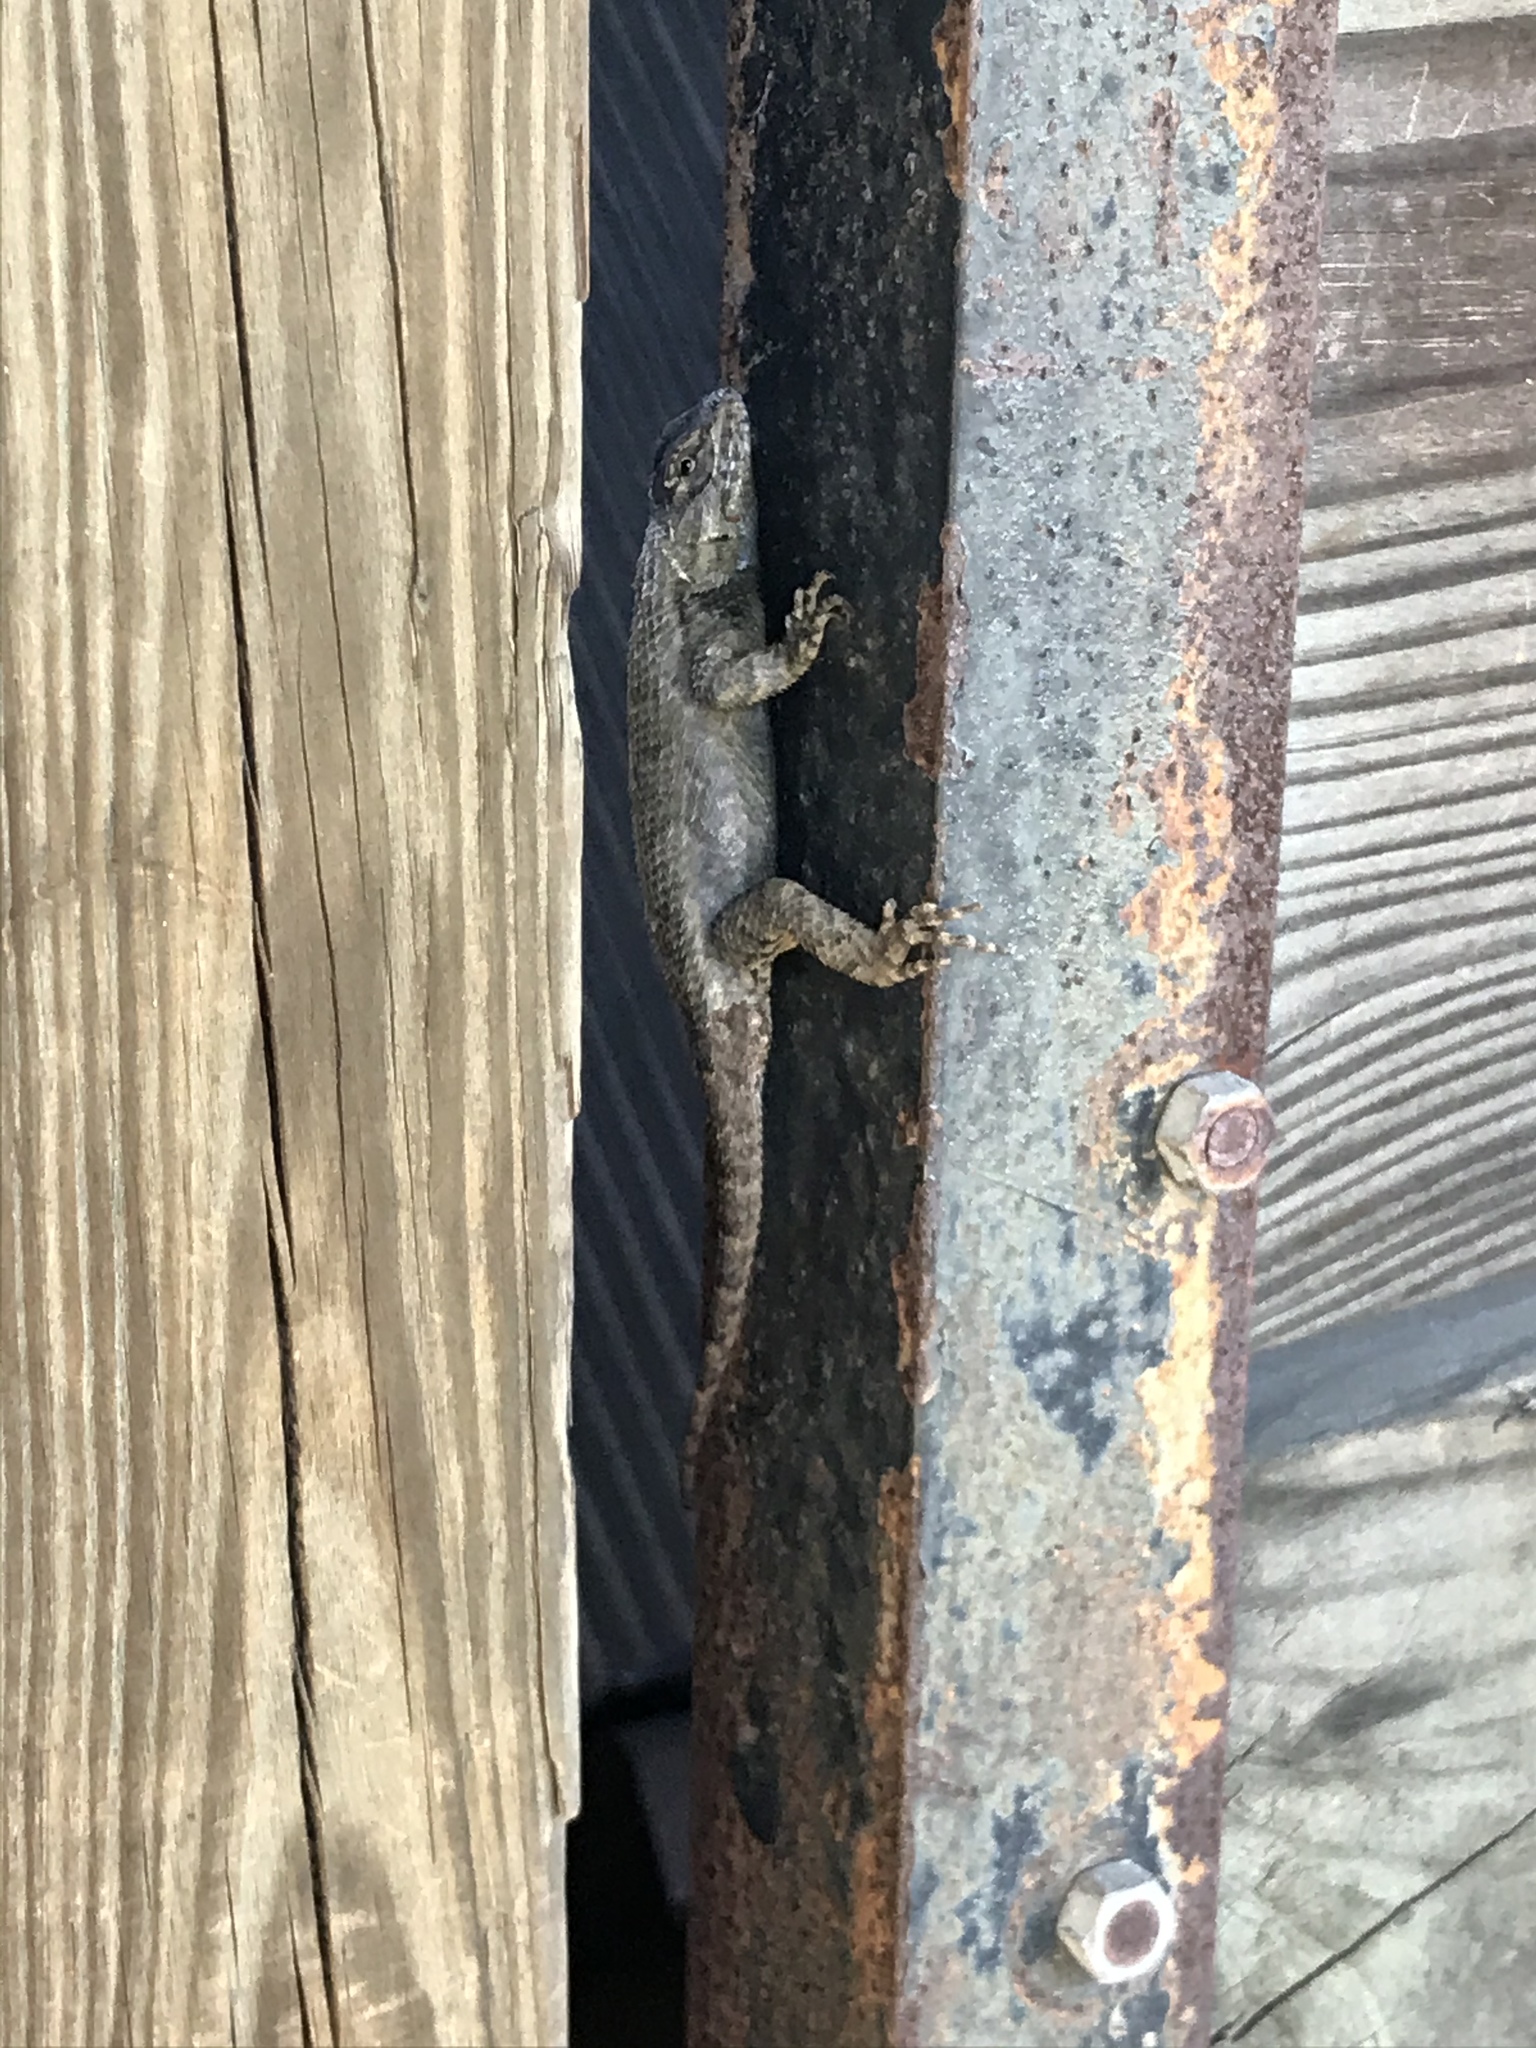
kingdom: Animalia
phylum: Chordata
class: Squamata
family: Phrynosomatidae
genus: Sceloporus
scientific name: Sceloporus undulatus
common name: Eastern fence lizard
